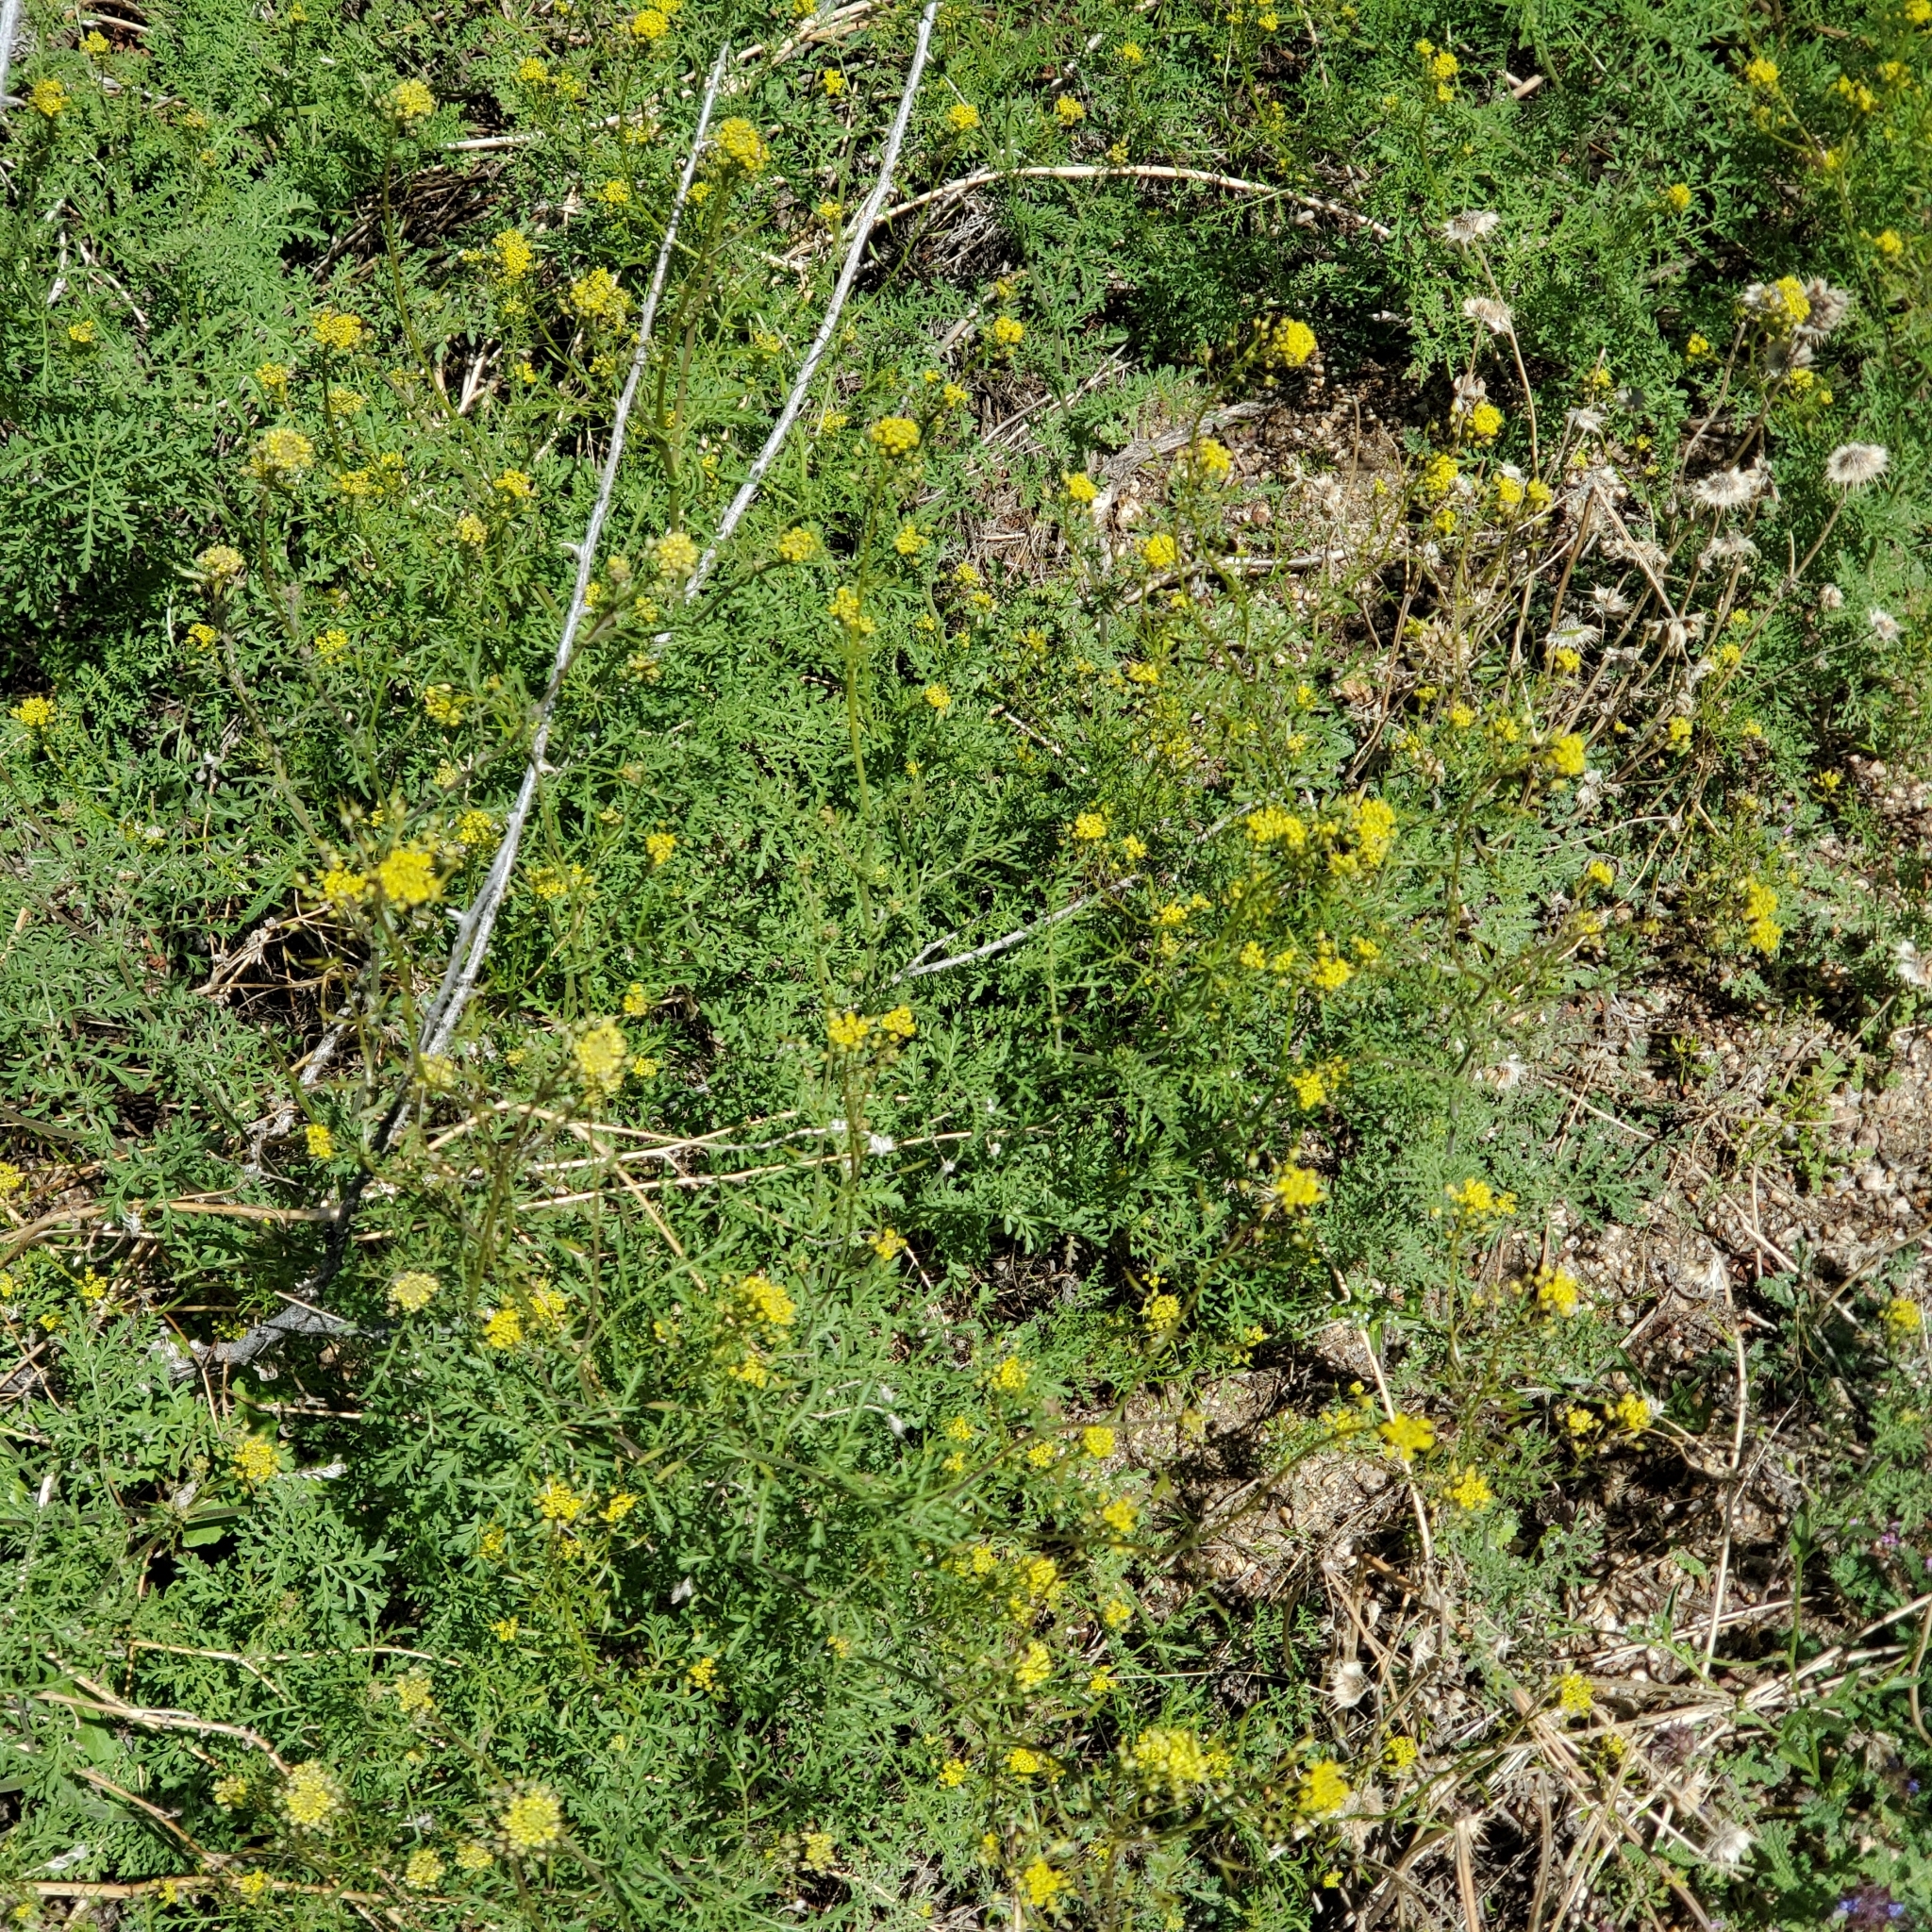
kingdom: Plantae
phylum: Tracheophyta
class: Magnoliopsida
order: Brassicales
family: Brassicaceae
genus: Descurainia
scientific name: Descurainia pinnata
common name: Western tansy mustard
